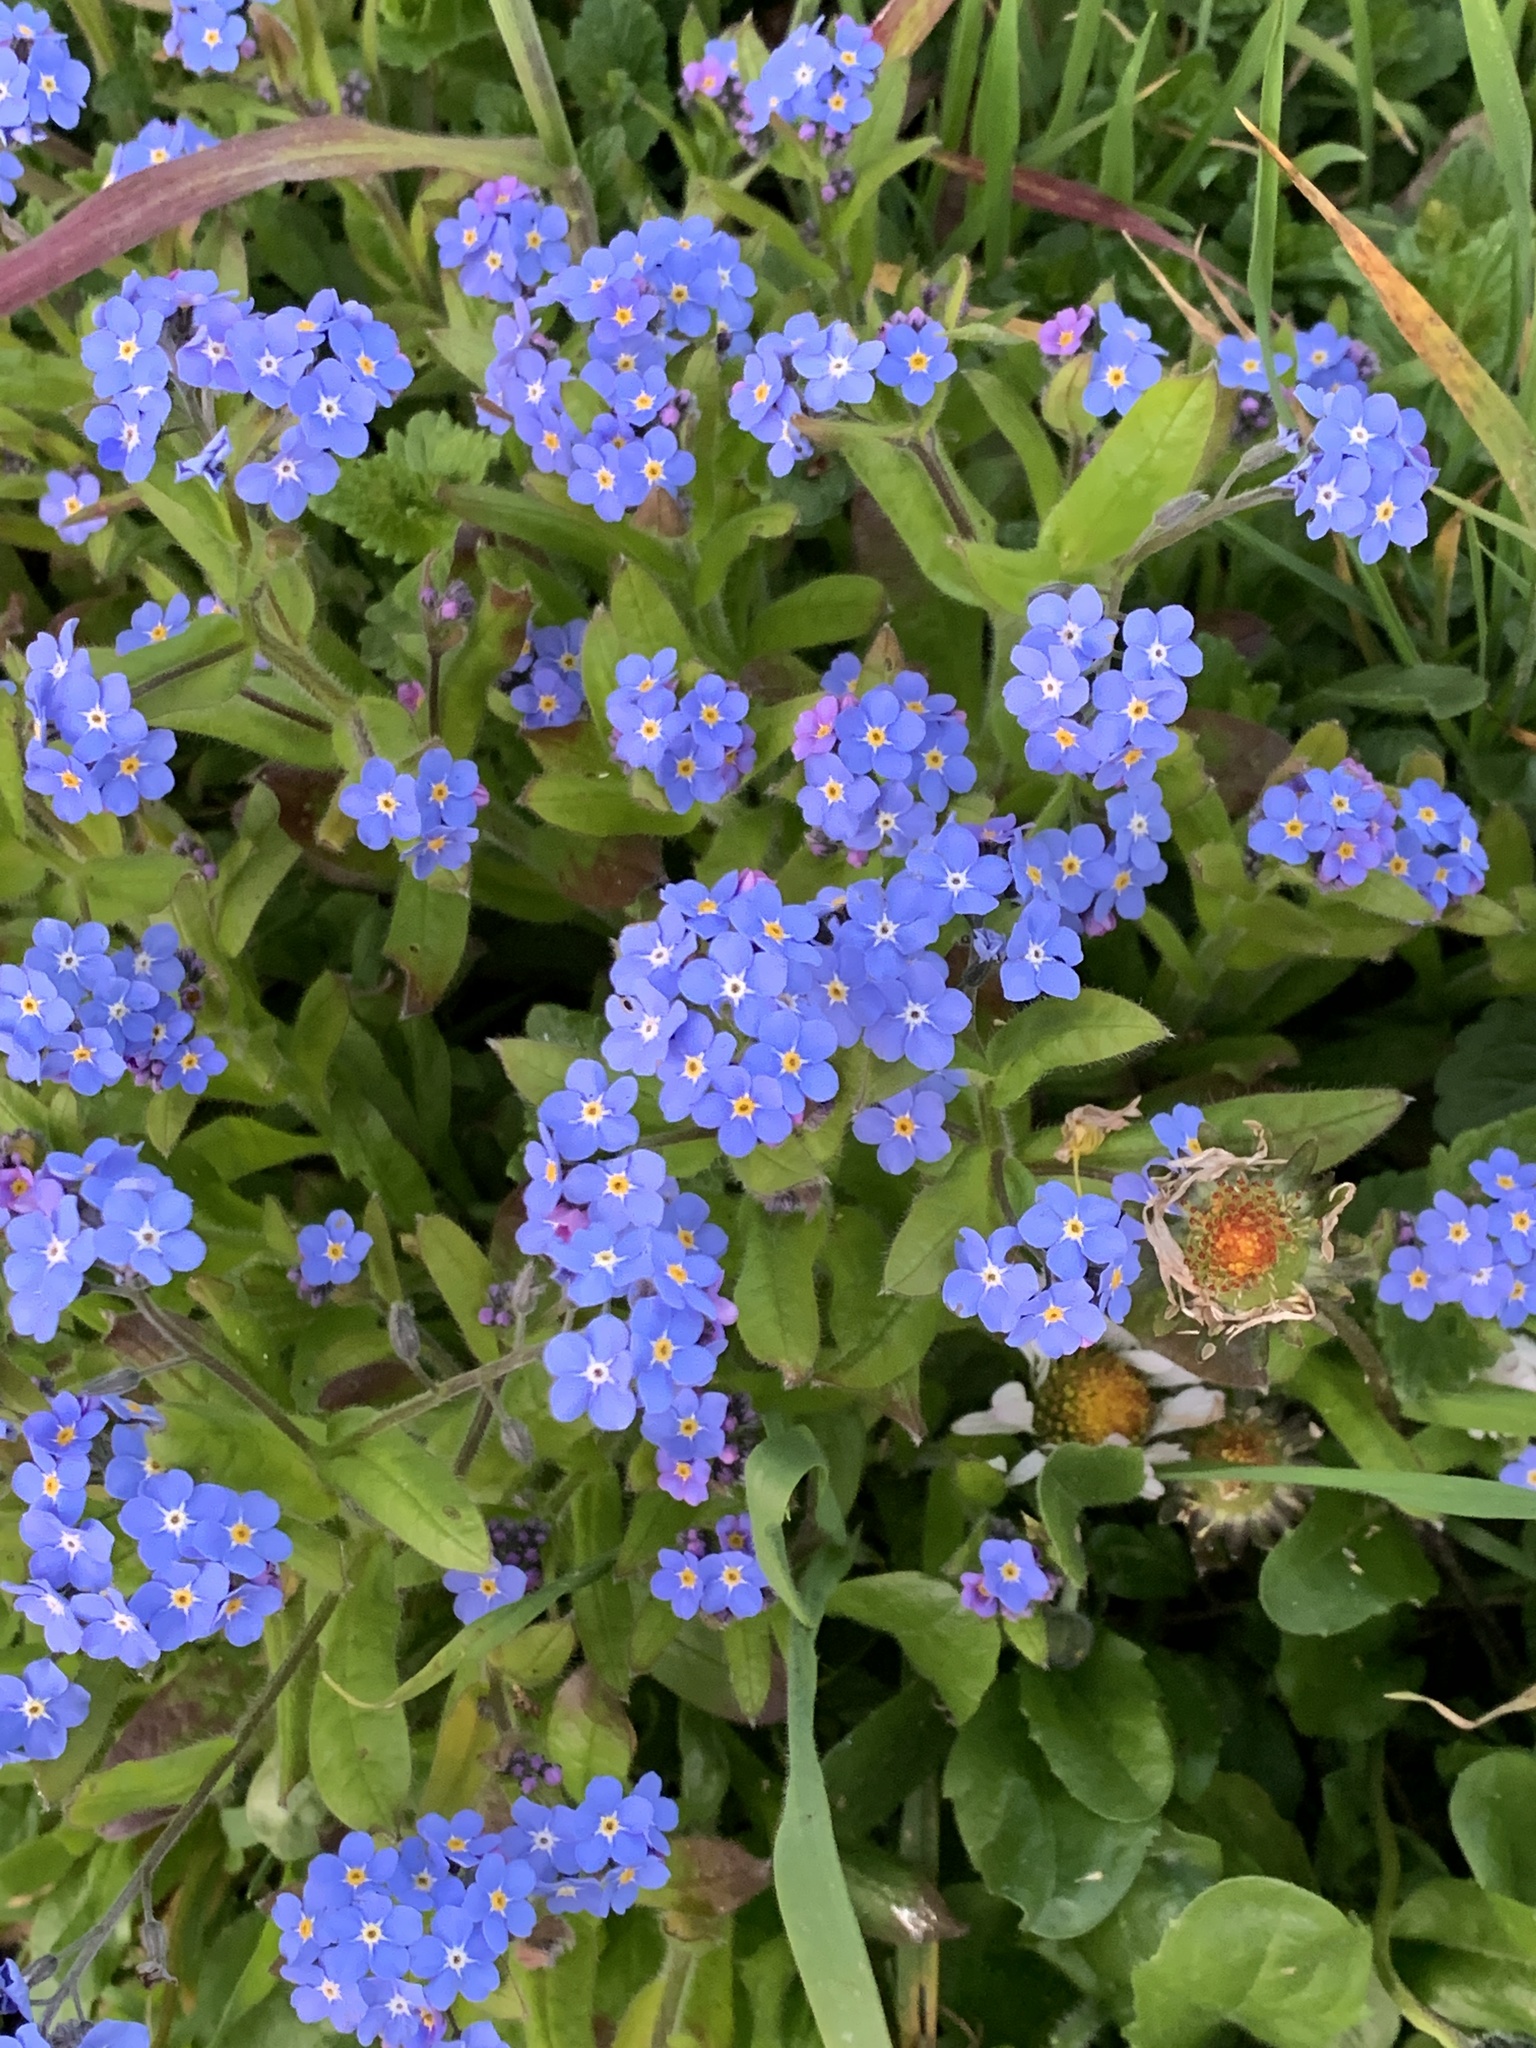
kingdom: Plantae
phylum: Tracheophyta
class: Magnoliopsida
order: Boraginales
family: Boraginaceae
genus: Myosotis
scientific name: Myosotis sylvatica
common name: Wood forget-me-not
